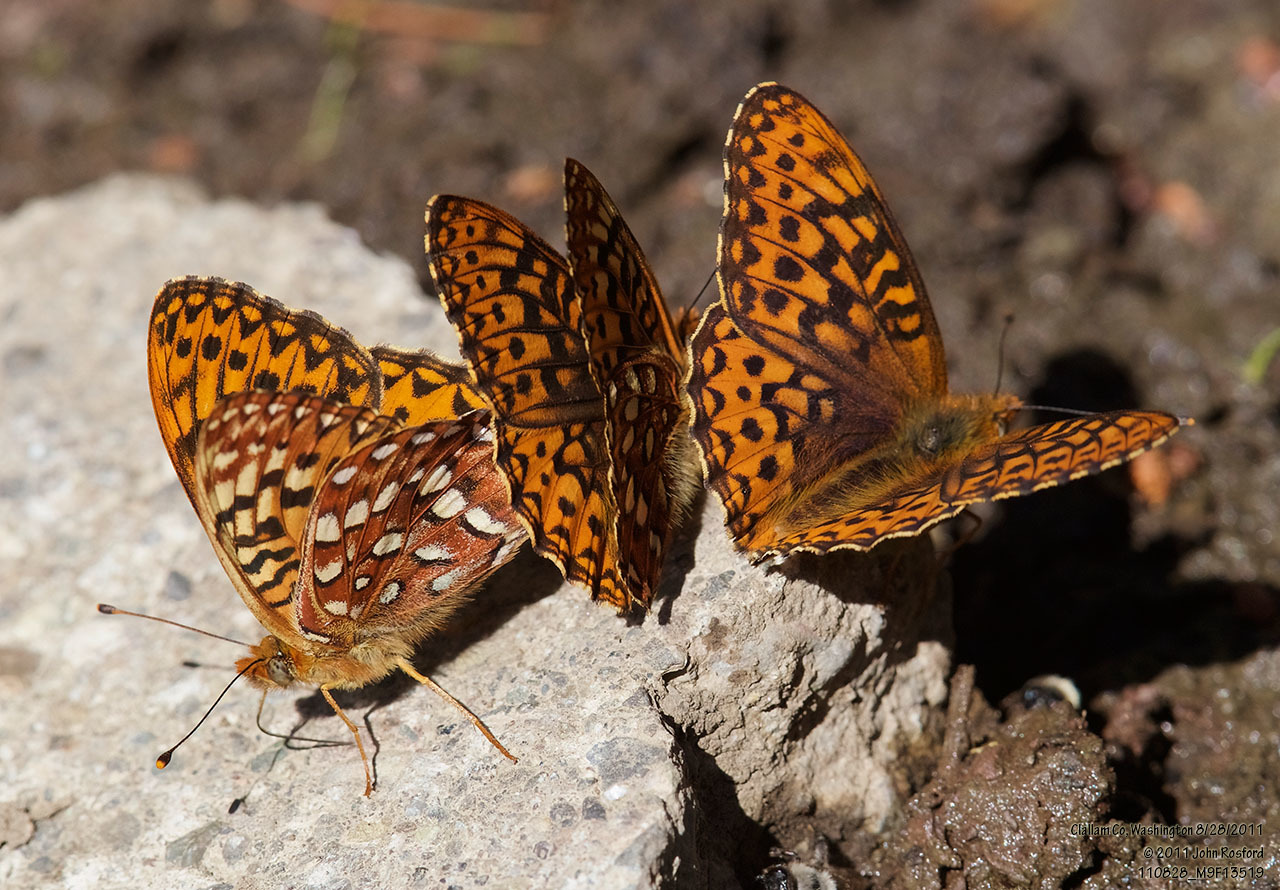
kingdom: Animalia
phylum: Arthropoda
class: Insecta
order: Lepidoptera
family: Nymphalidae
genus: Speyeria
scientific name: Speyeria hydaspe
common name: Hydaspe fritillary
